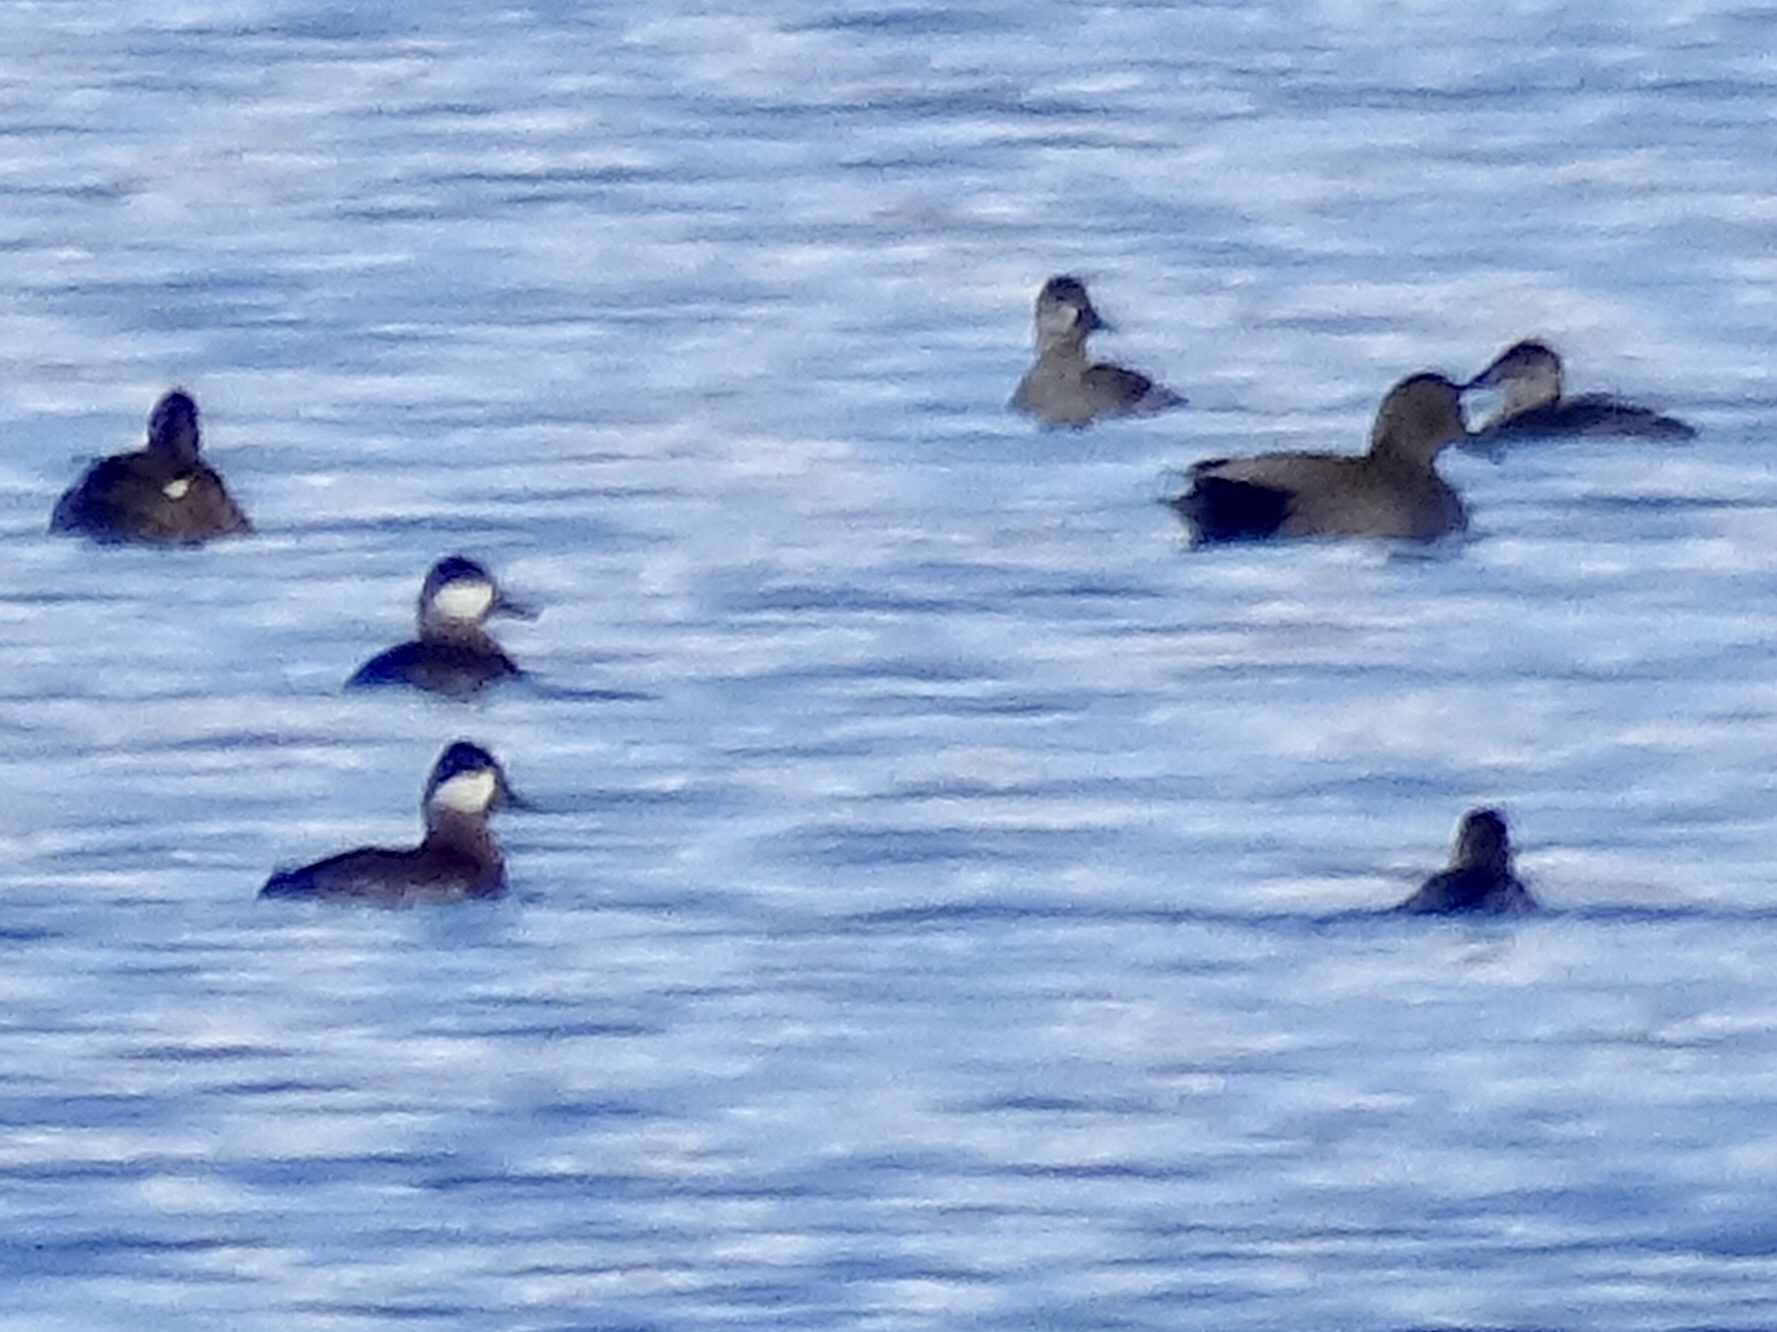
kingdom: Animalia
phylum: Chordata
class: Aves
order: Anseriformes
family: Anatidae
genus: Oxyura
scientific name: Oxyura jamaicensis
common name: Ruddy duck
